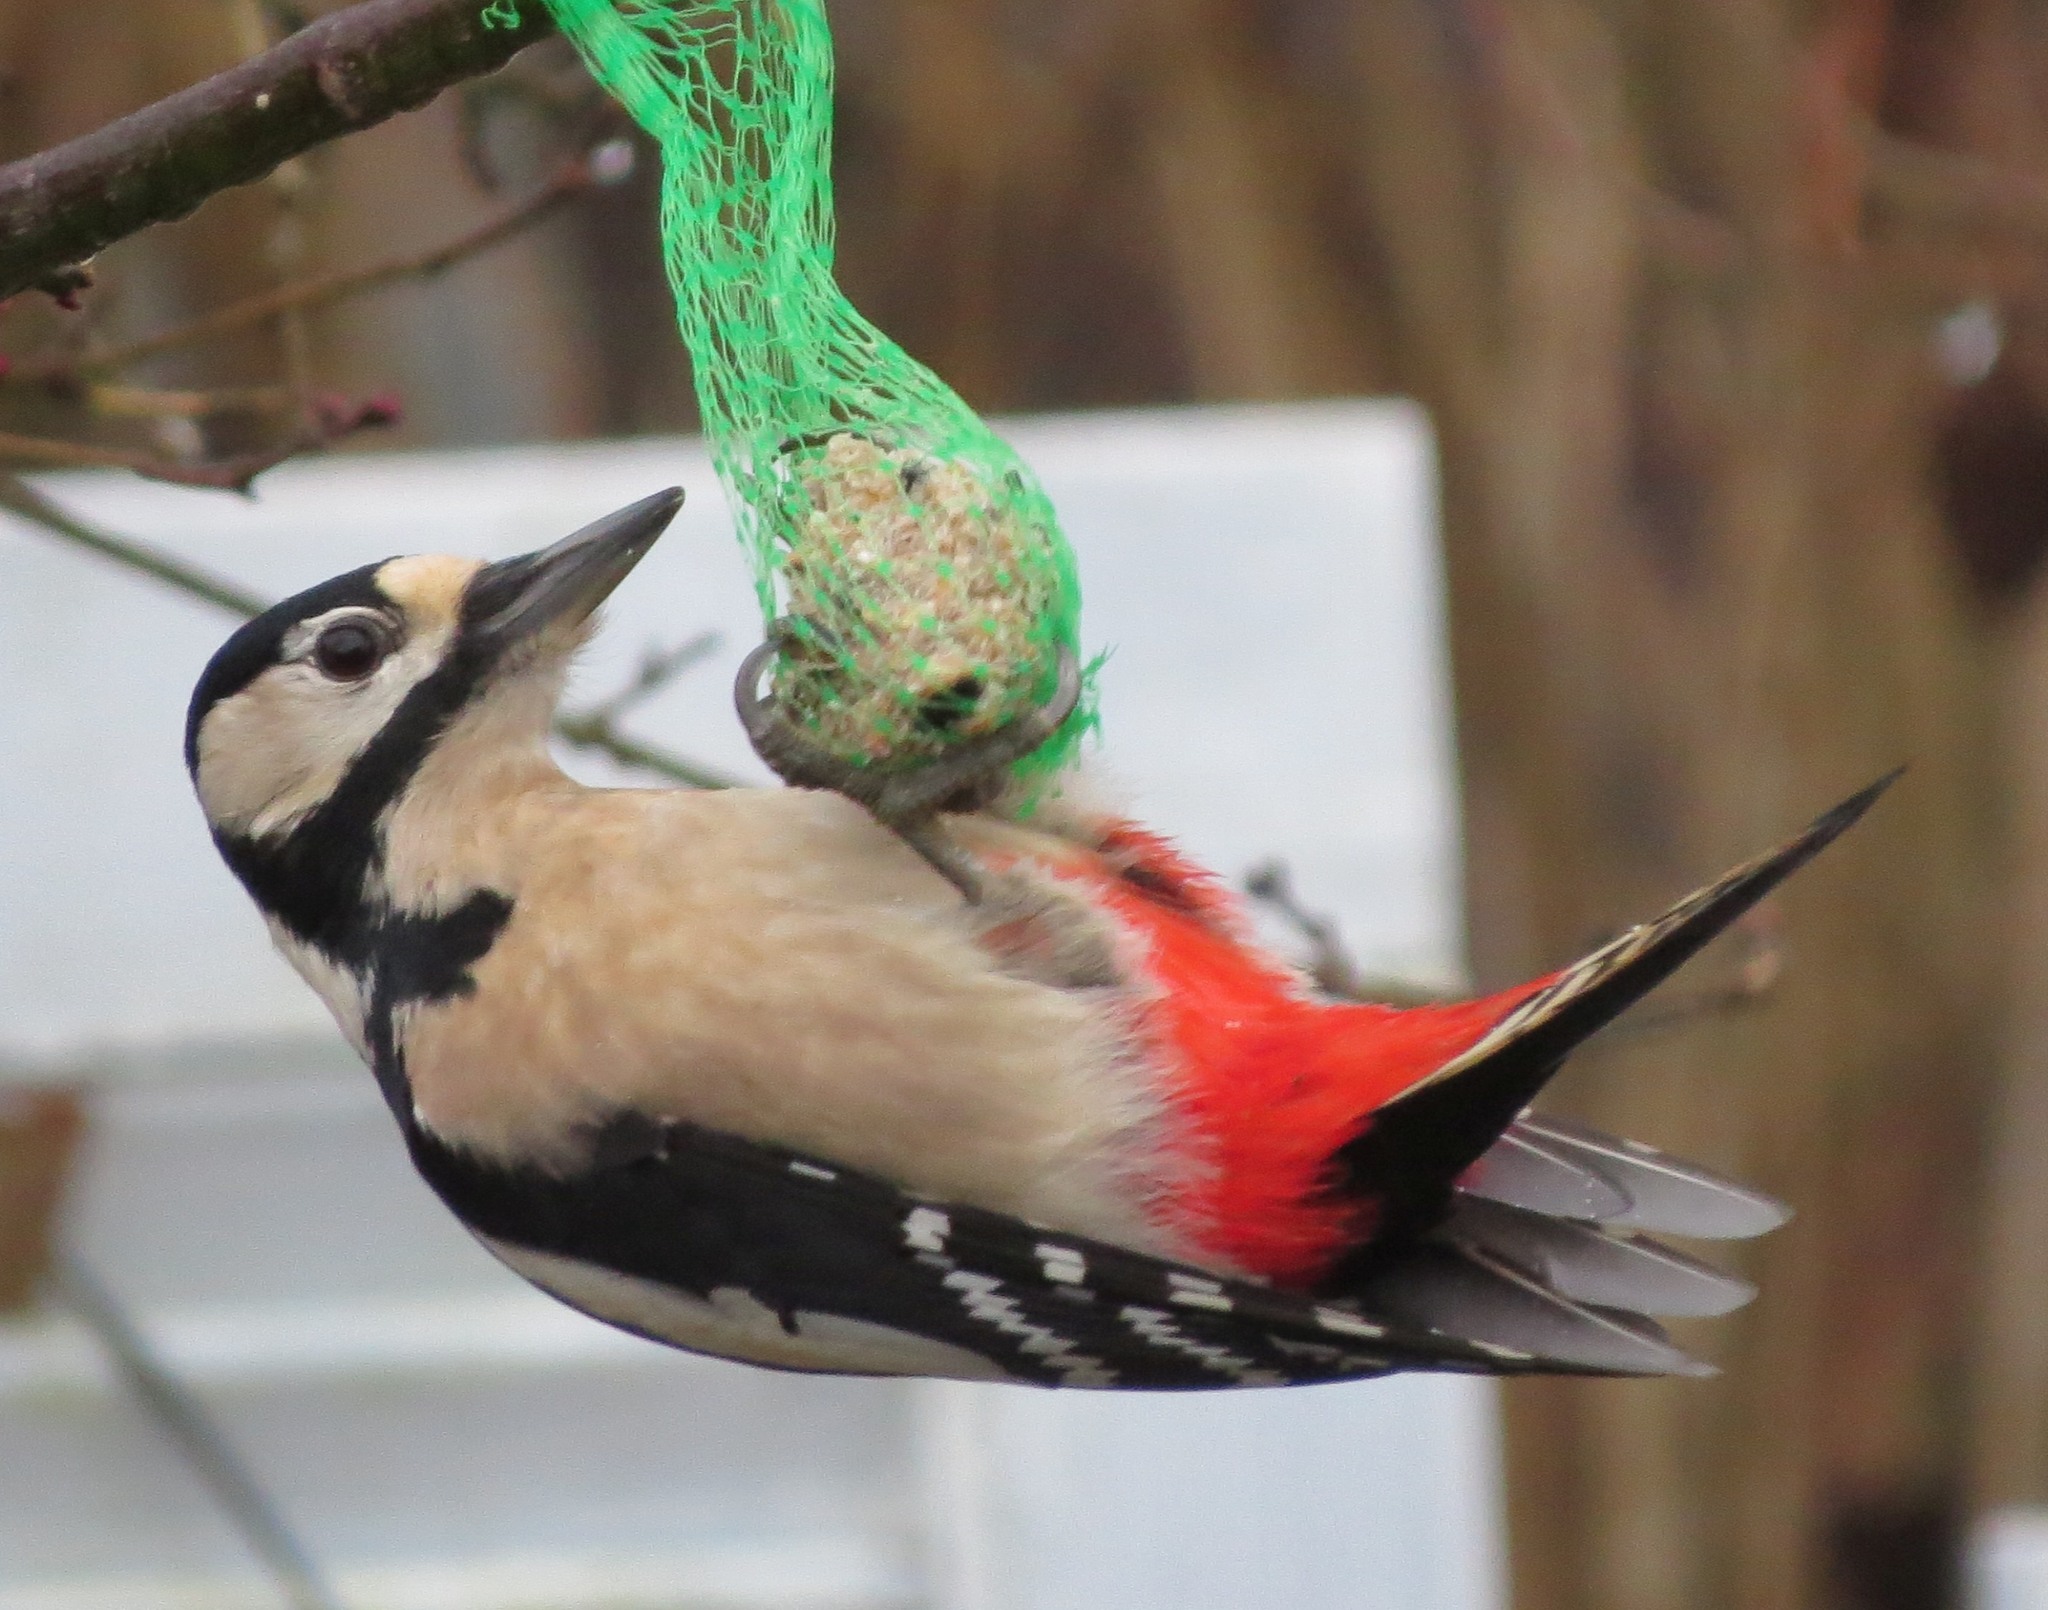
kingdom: Animalia
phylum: Chordata
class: Aves
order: Piciformes
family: Picidae
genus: Dendrocopos
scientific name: Dendrocopos major
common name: Great spotted woodpecker
